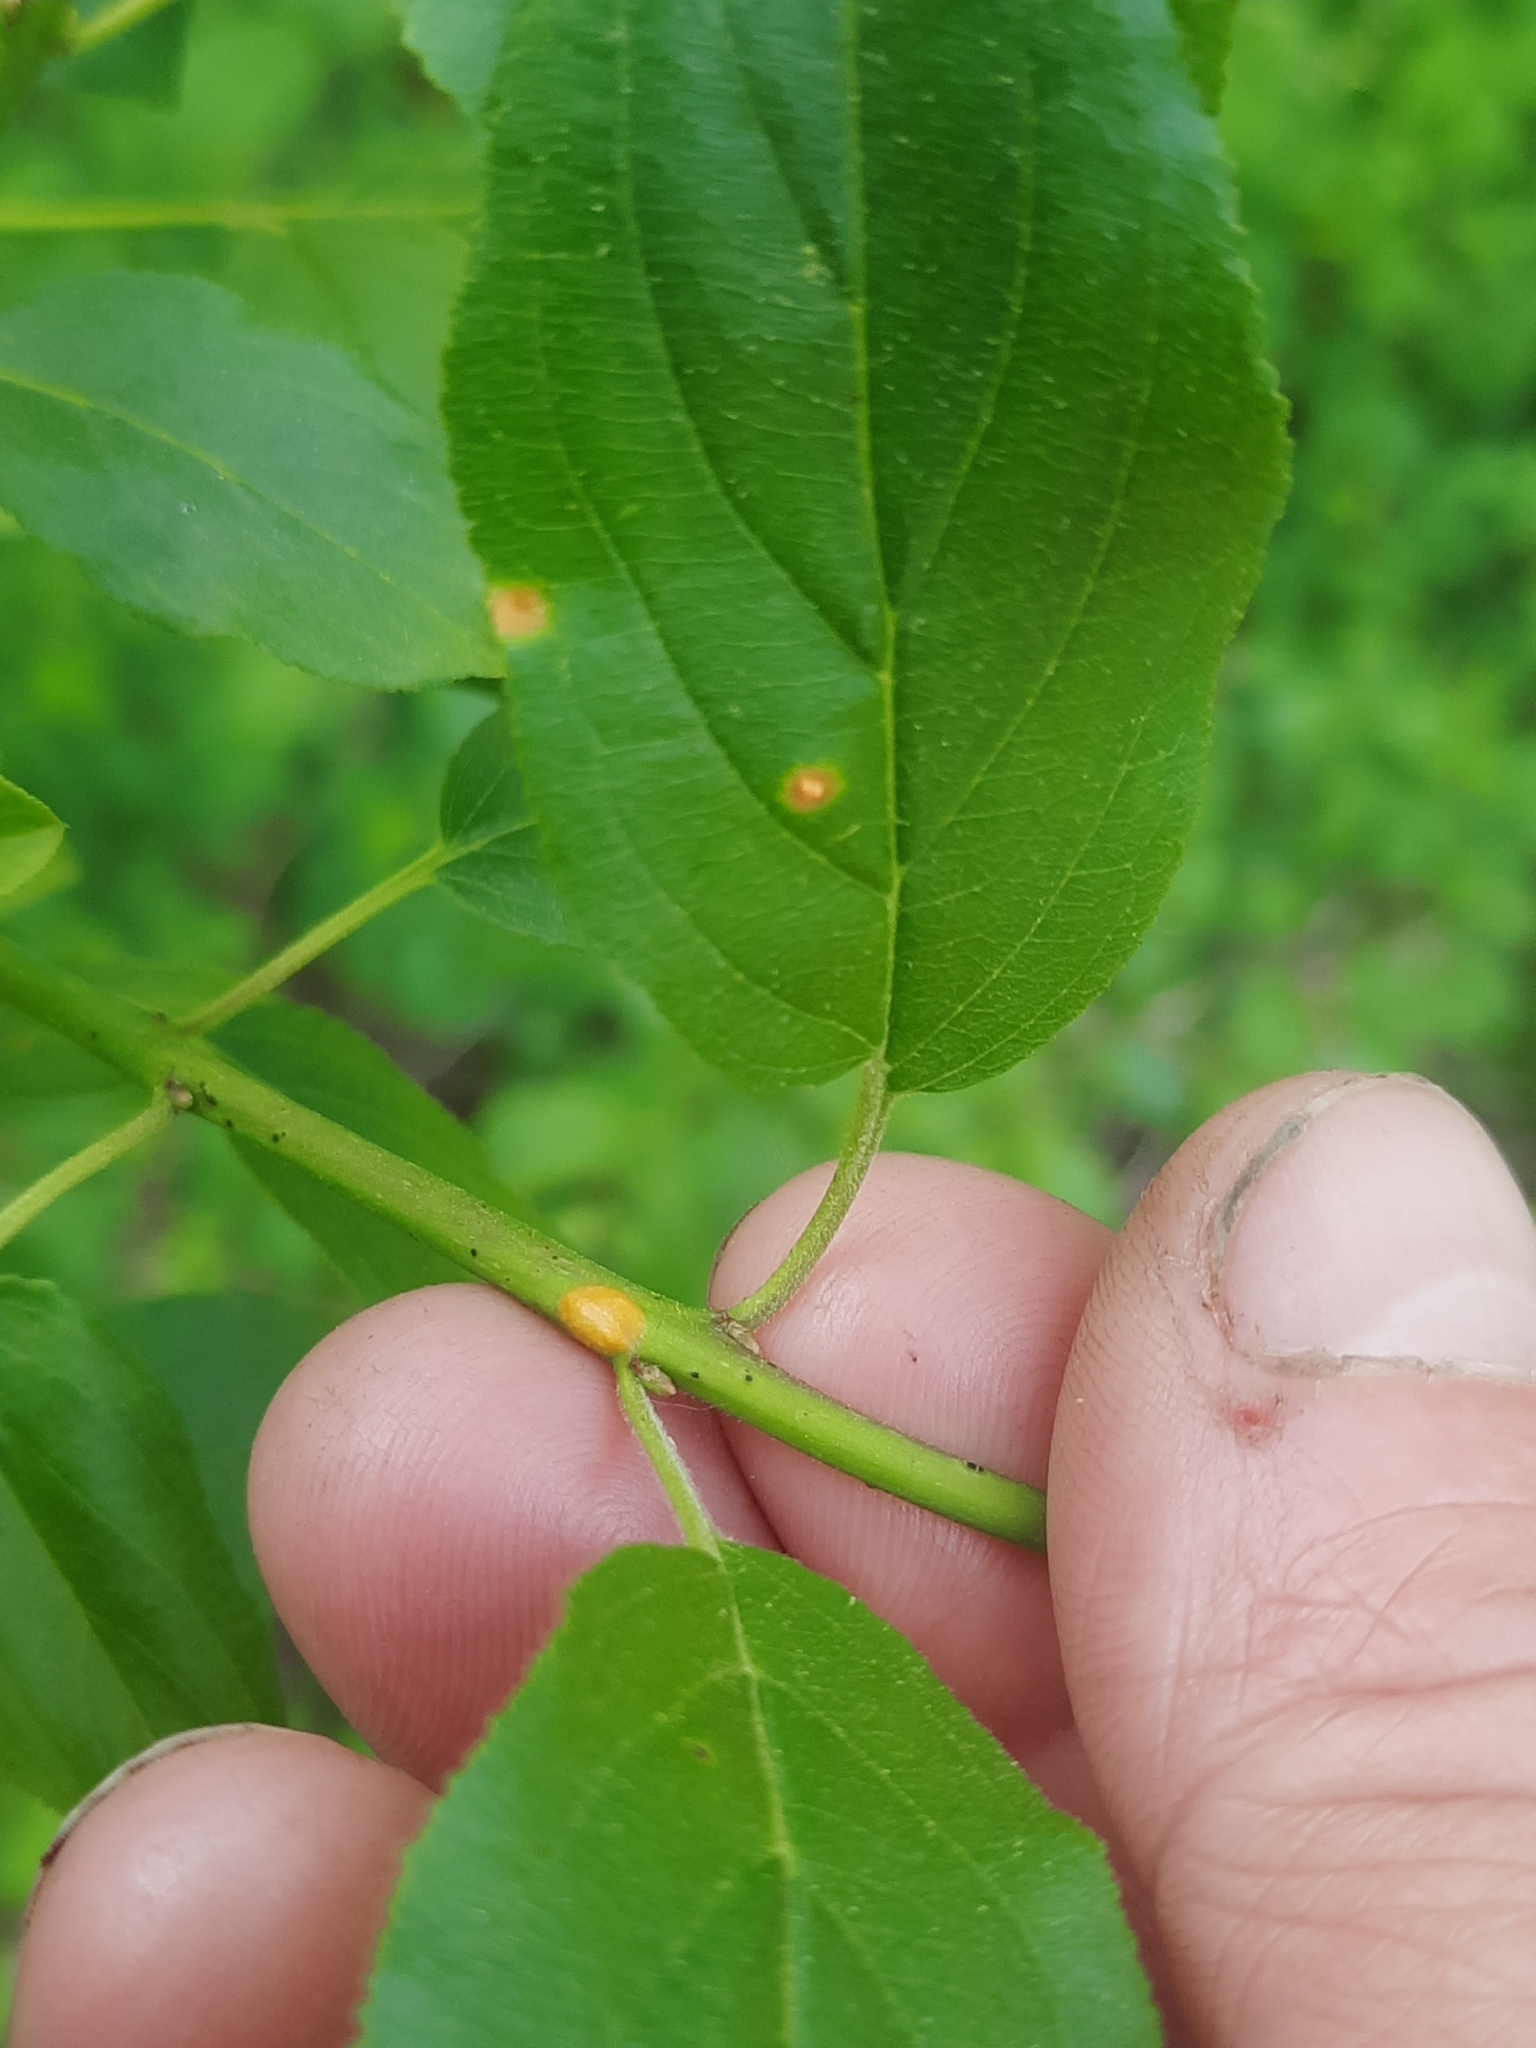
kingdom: Plantae
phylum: Tracheophyta
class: Magnoliopsida
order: Rosales
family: Rhamnaceae
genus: Rhamnus
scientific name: Rhamnus cathartica
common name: Common buckthorn
